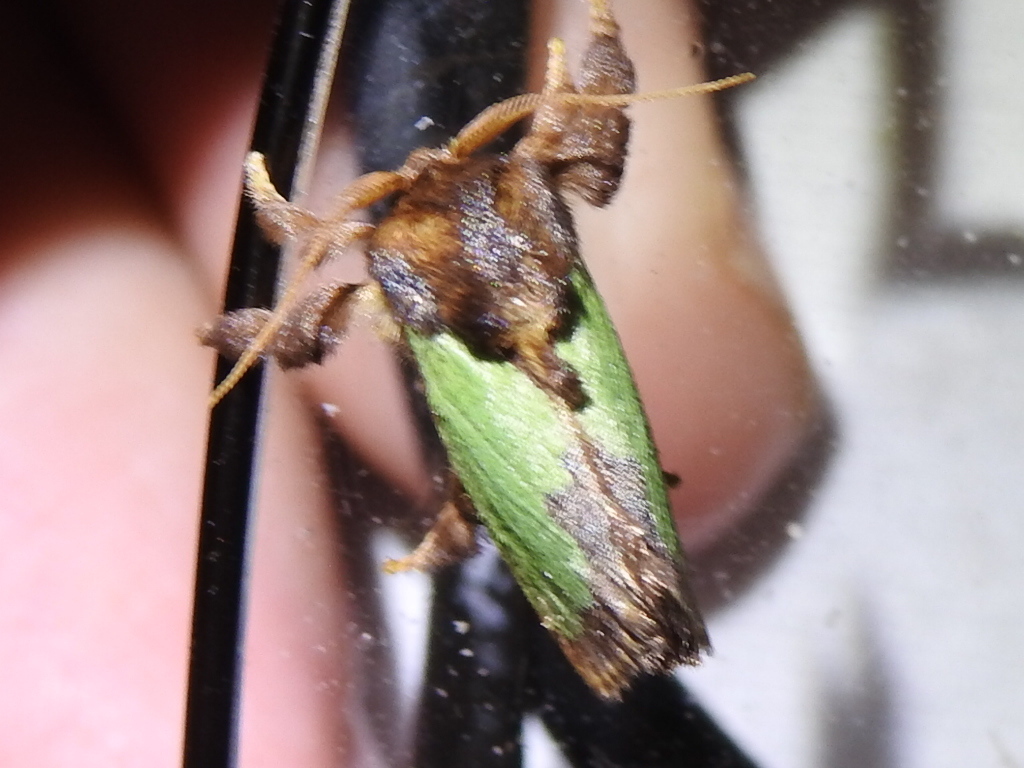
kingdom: Animalia
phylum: Arthropoda
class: Insecta
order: Lepidoptera
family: Limacodidae
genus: Euclea
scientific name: Euclea incisa
